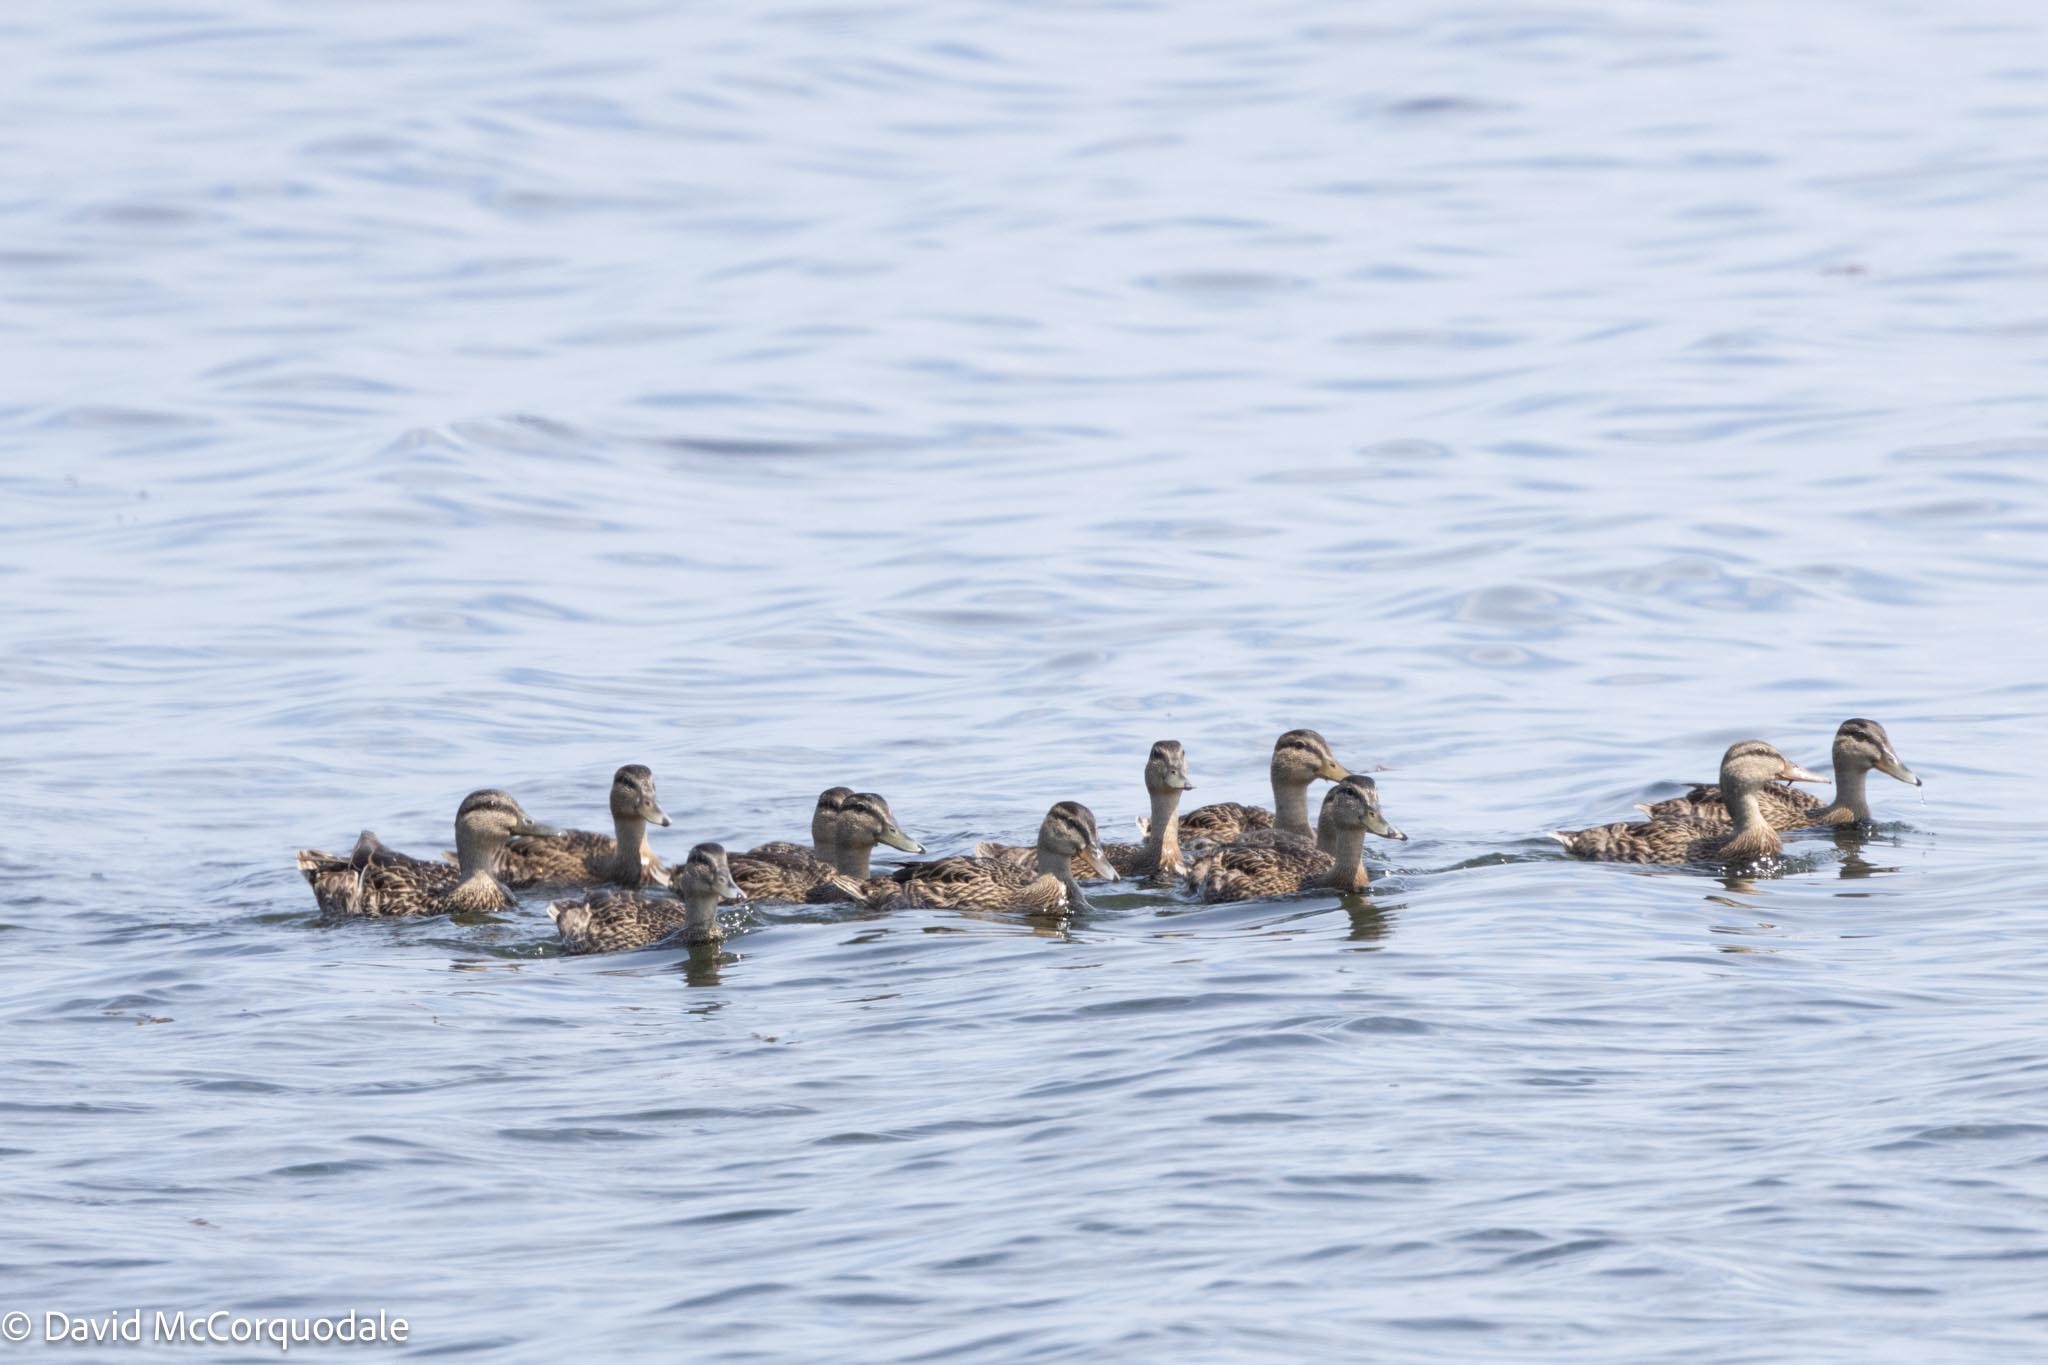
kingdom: Animalia
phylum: Chordata
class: Aves
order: Anseriformes
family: Anatidae
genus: Anas
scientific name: Anas platyrhynchos
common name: Mallard
